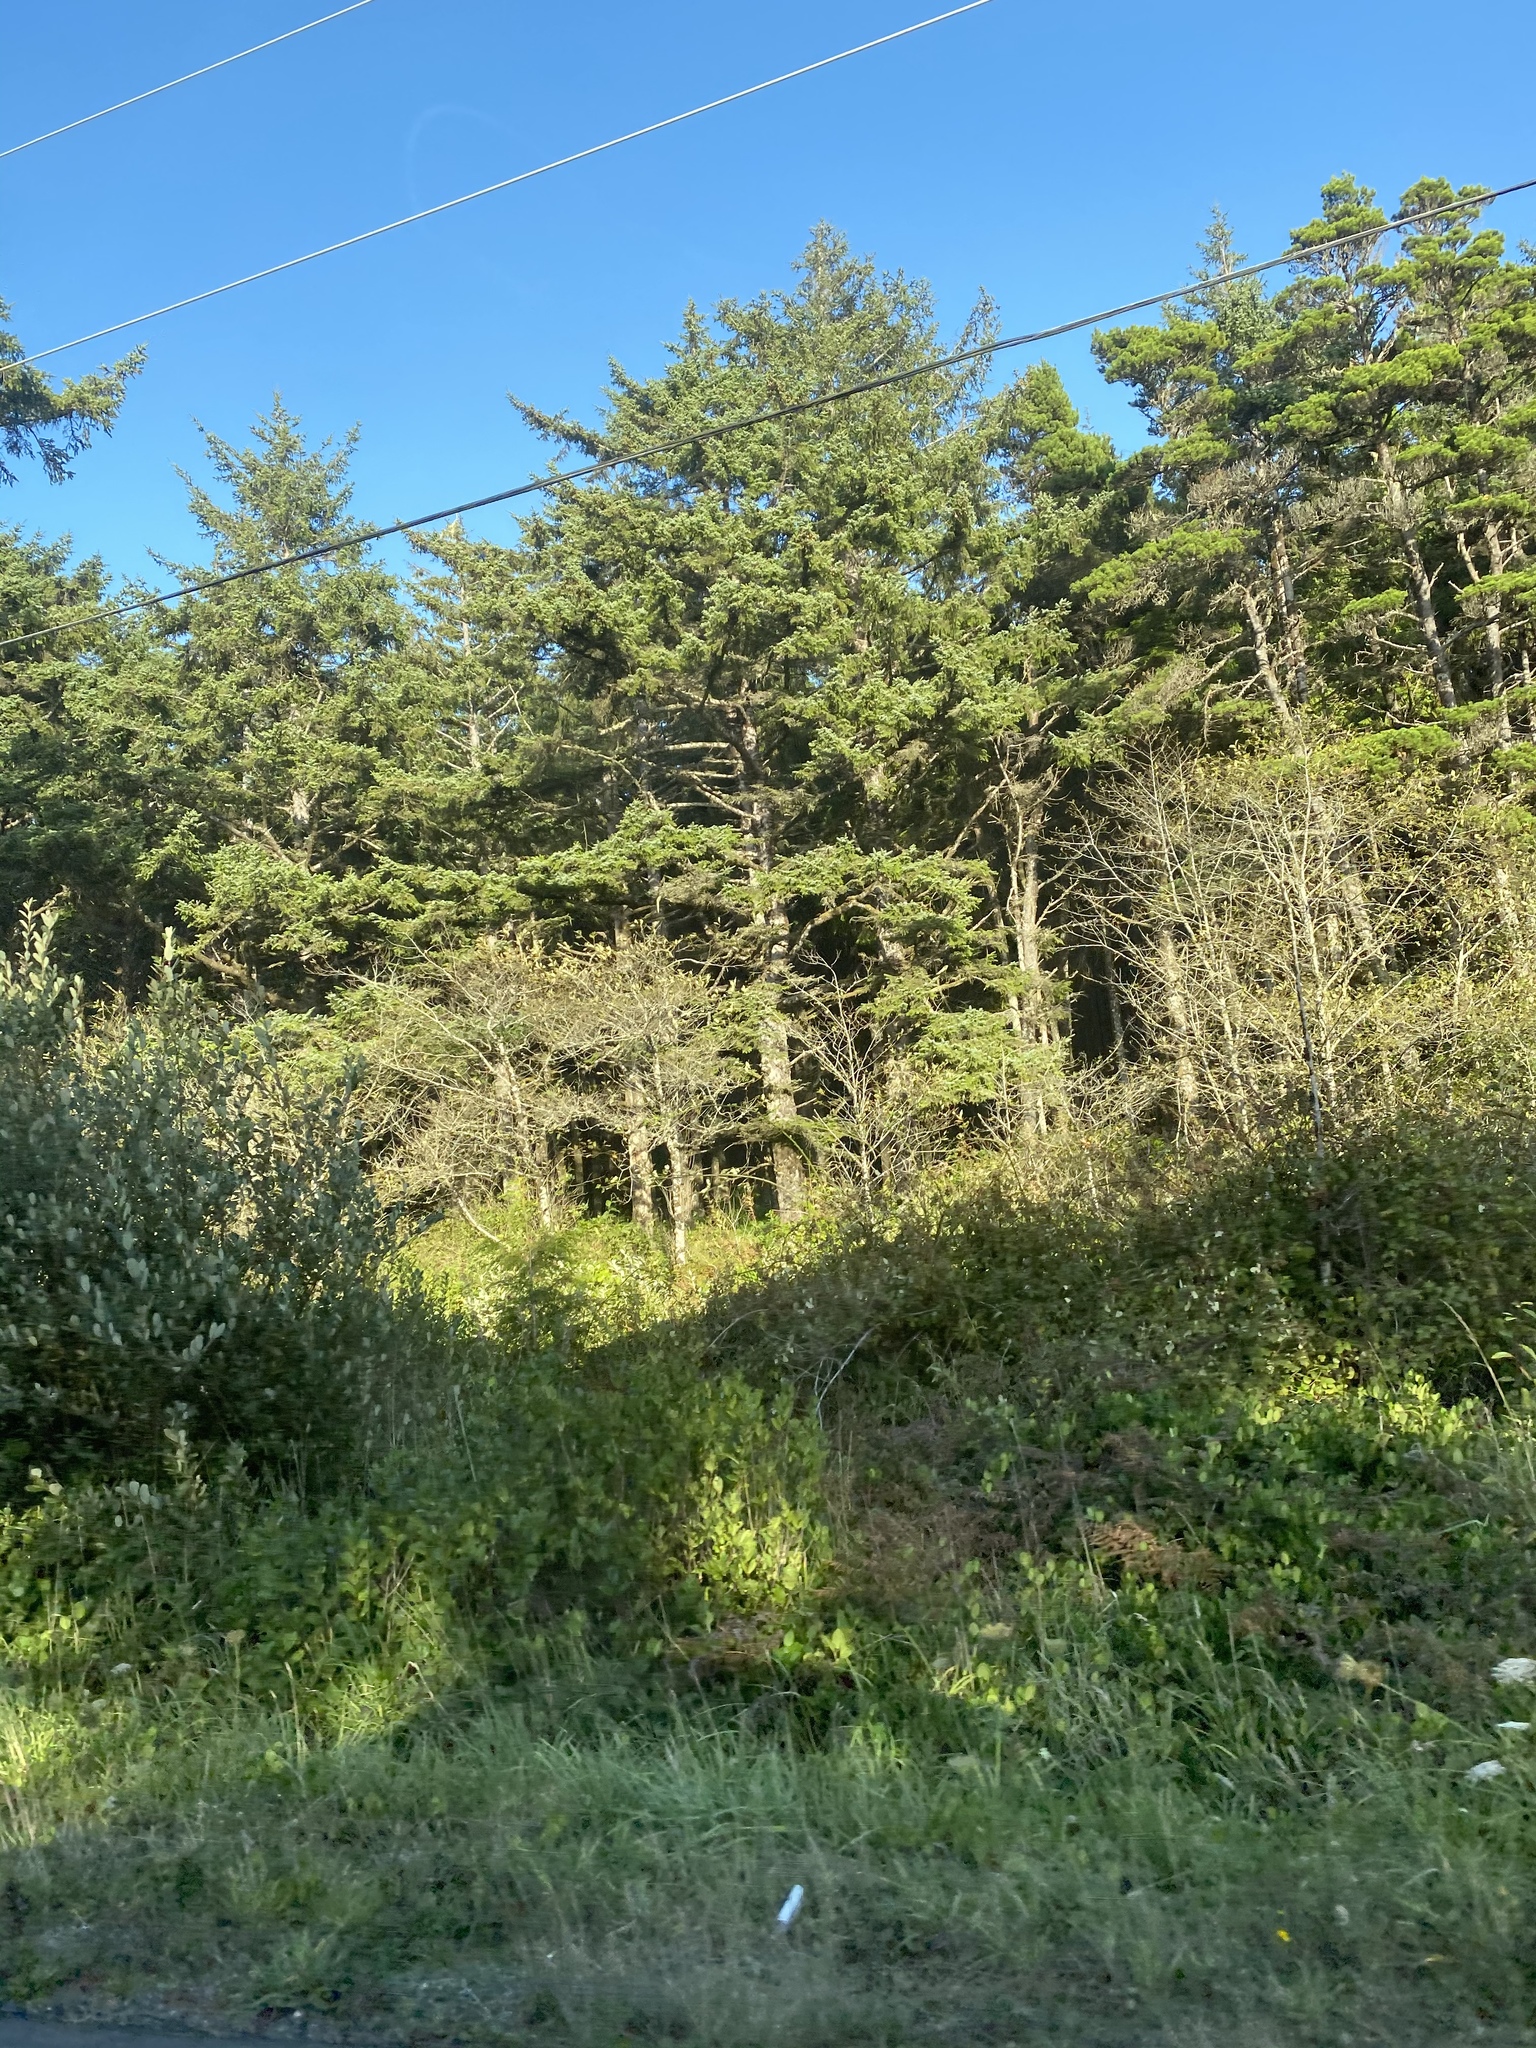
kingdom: Plantae
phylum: Tracheophyta
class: Pinopsida
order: Pinales
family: Pinaceae
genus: Picea
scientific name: Picea sitchensis
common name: Sitka spruce
